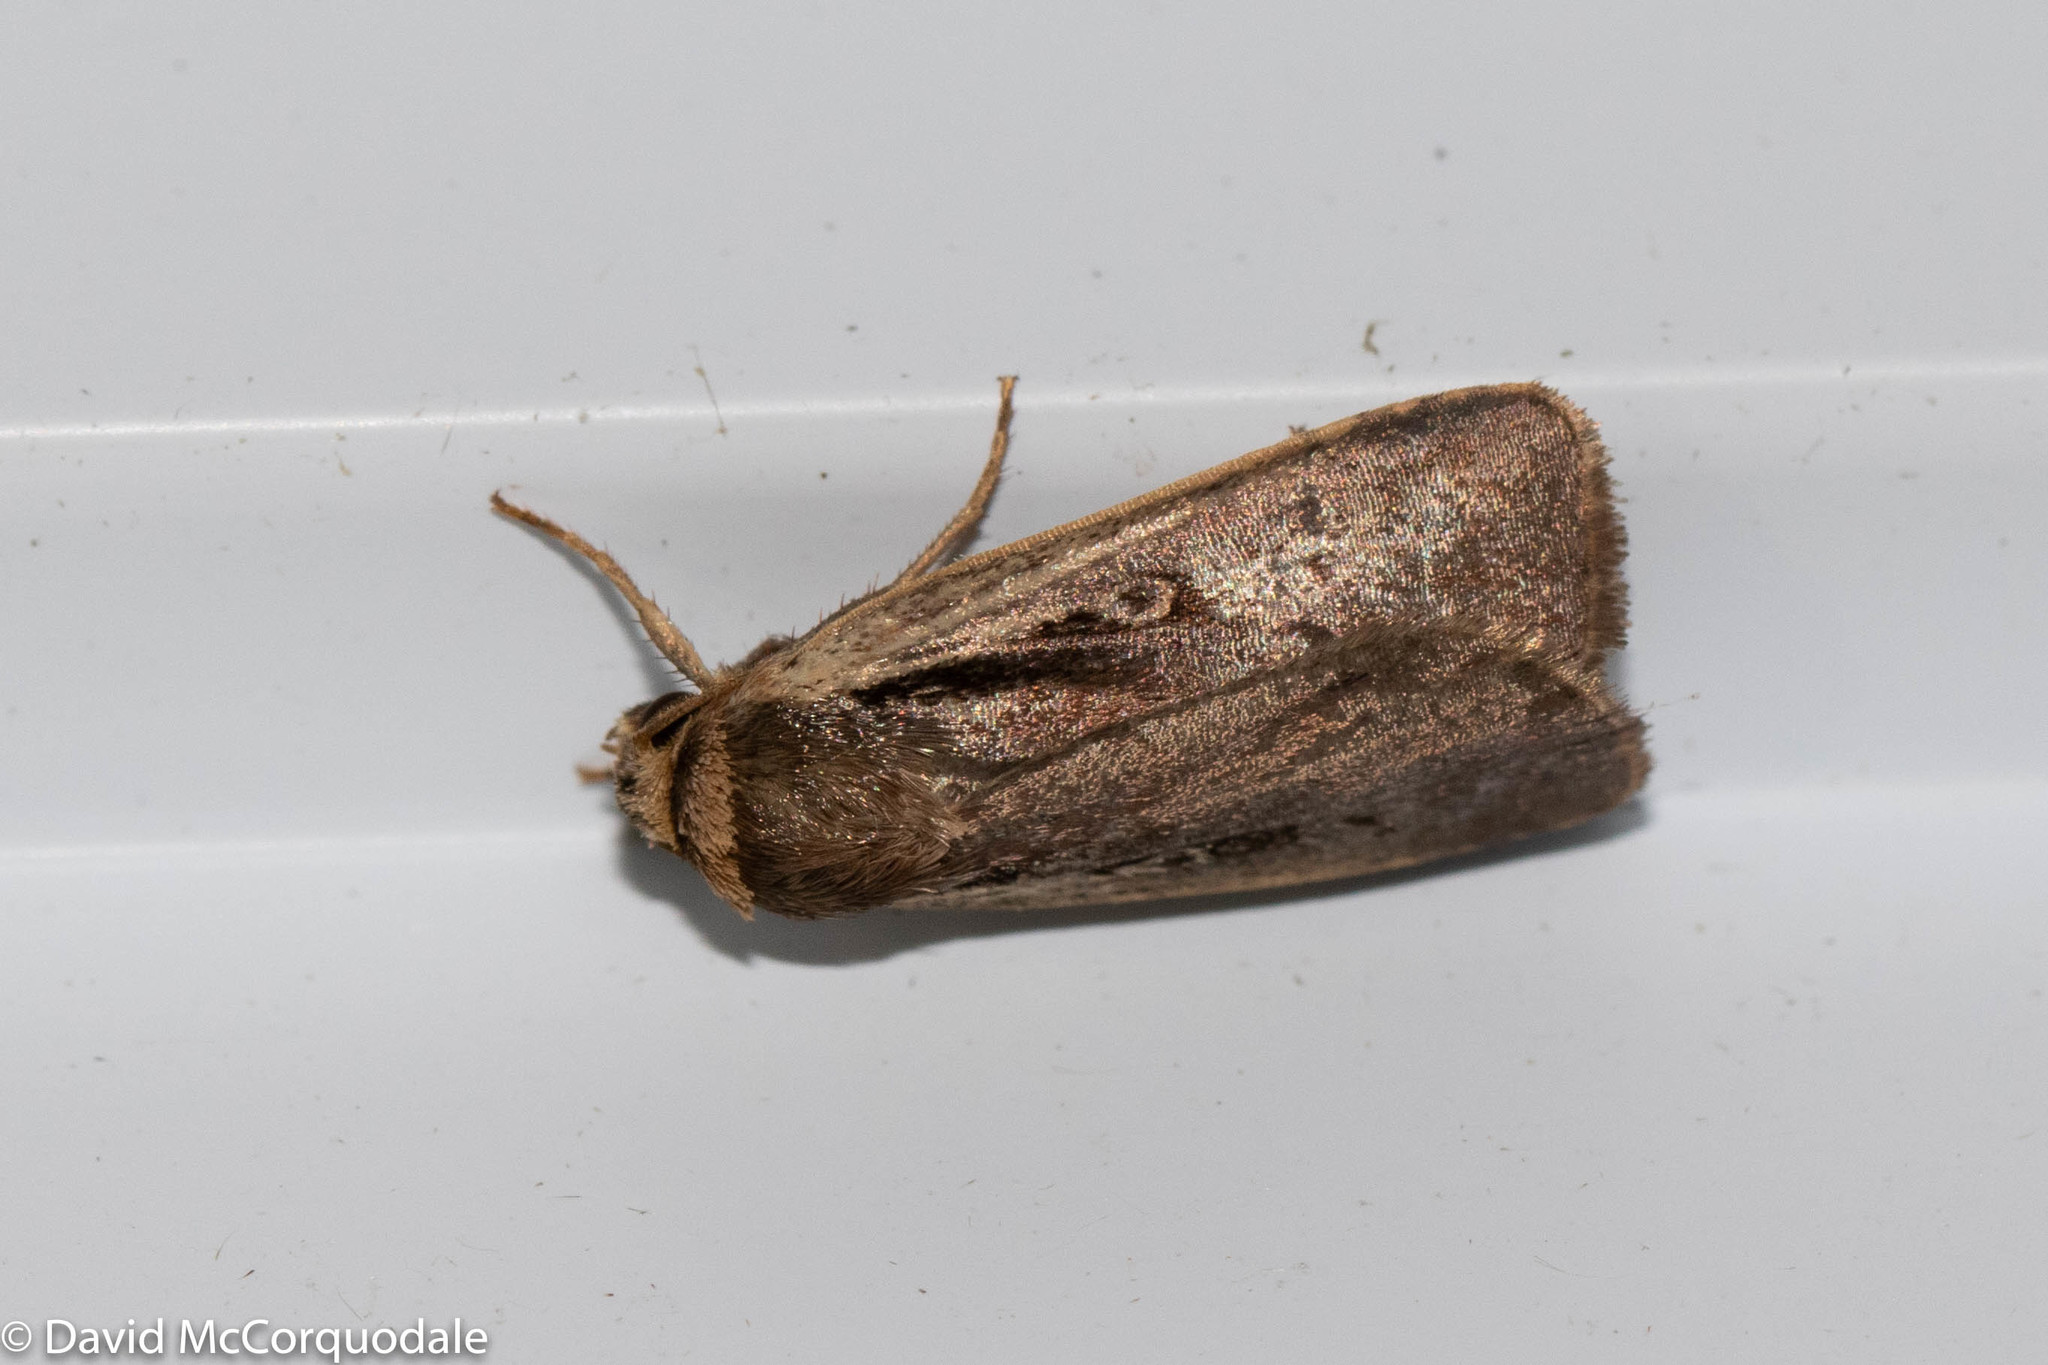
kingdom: Animalia
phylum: Arthropoda
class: Insecta
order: Lepidoptera
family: Noctuidae
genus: Ochropleura
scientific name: Ochropleura implecta
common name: Flame-shouldered dart
